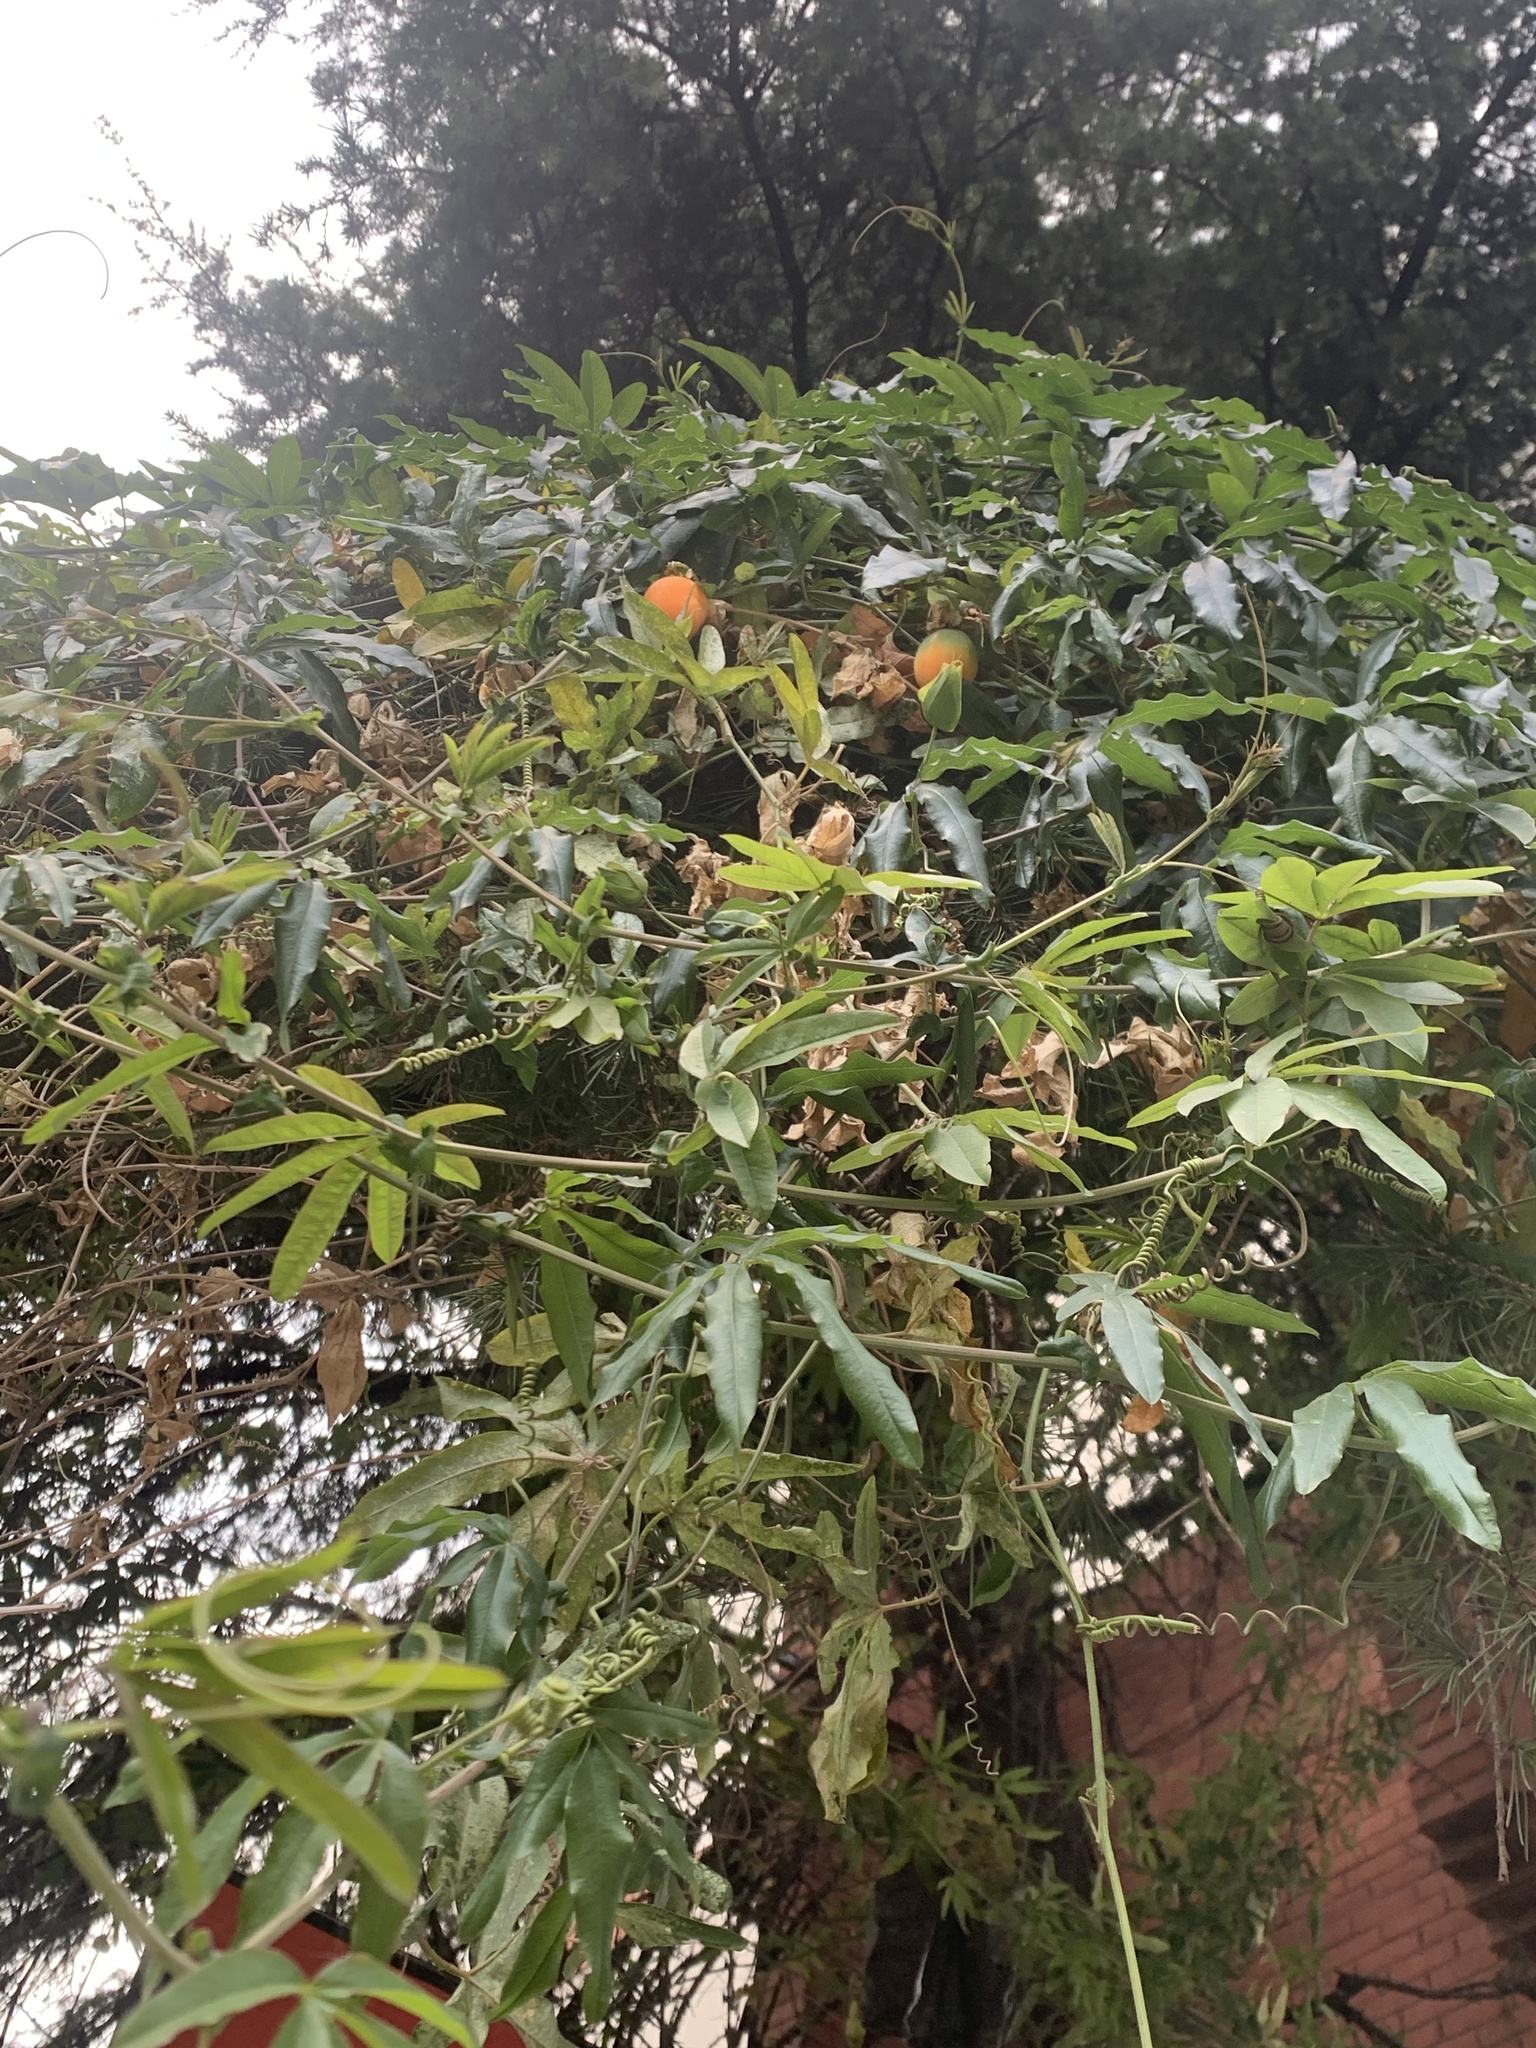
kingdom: Plantae
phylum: Tracheophyta
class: Magnoliopsida
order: Malpighiales
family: Passifloraceae
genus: Passiflora
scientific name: Passiflora caerulea
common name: Blue passionflower
